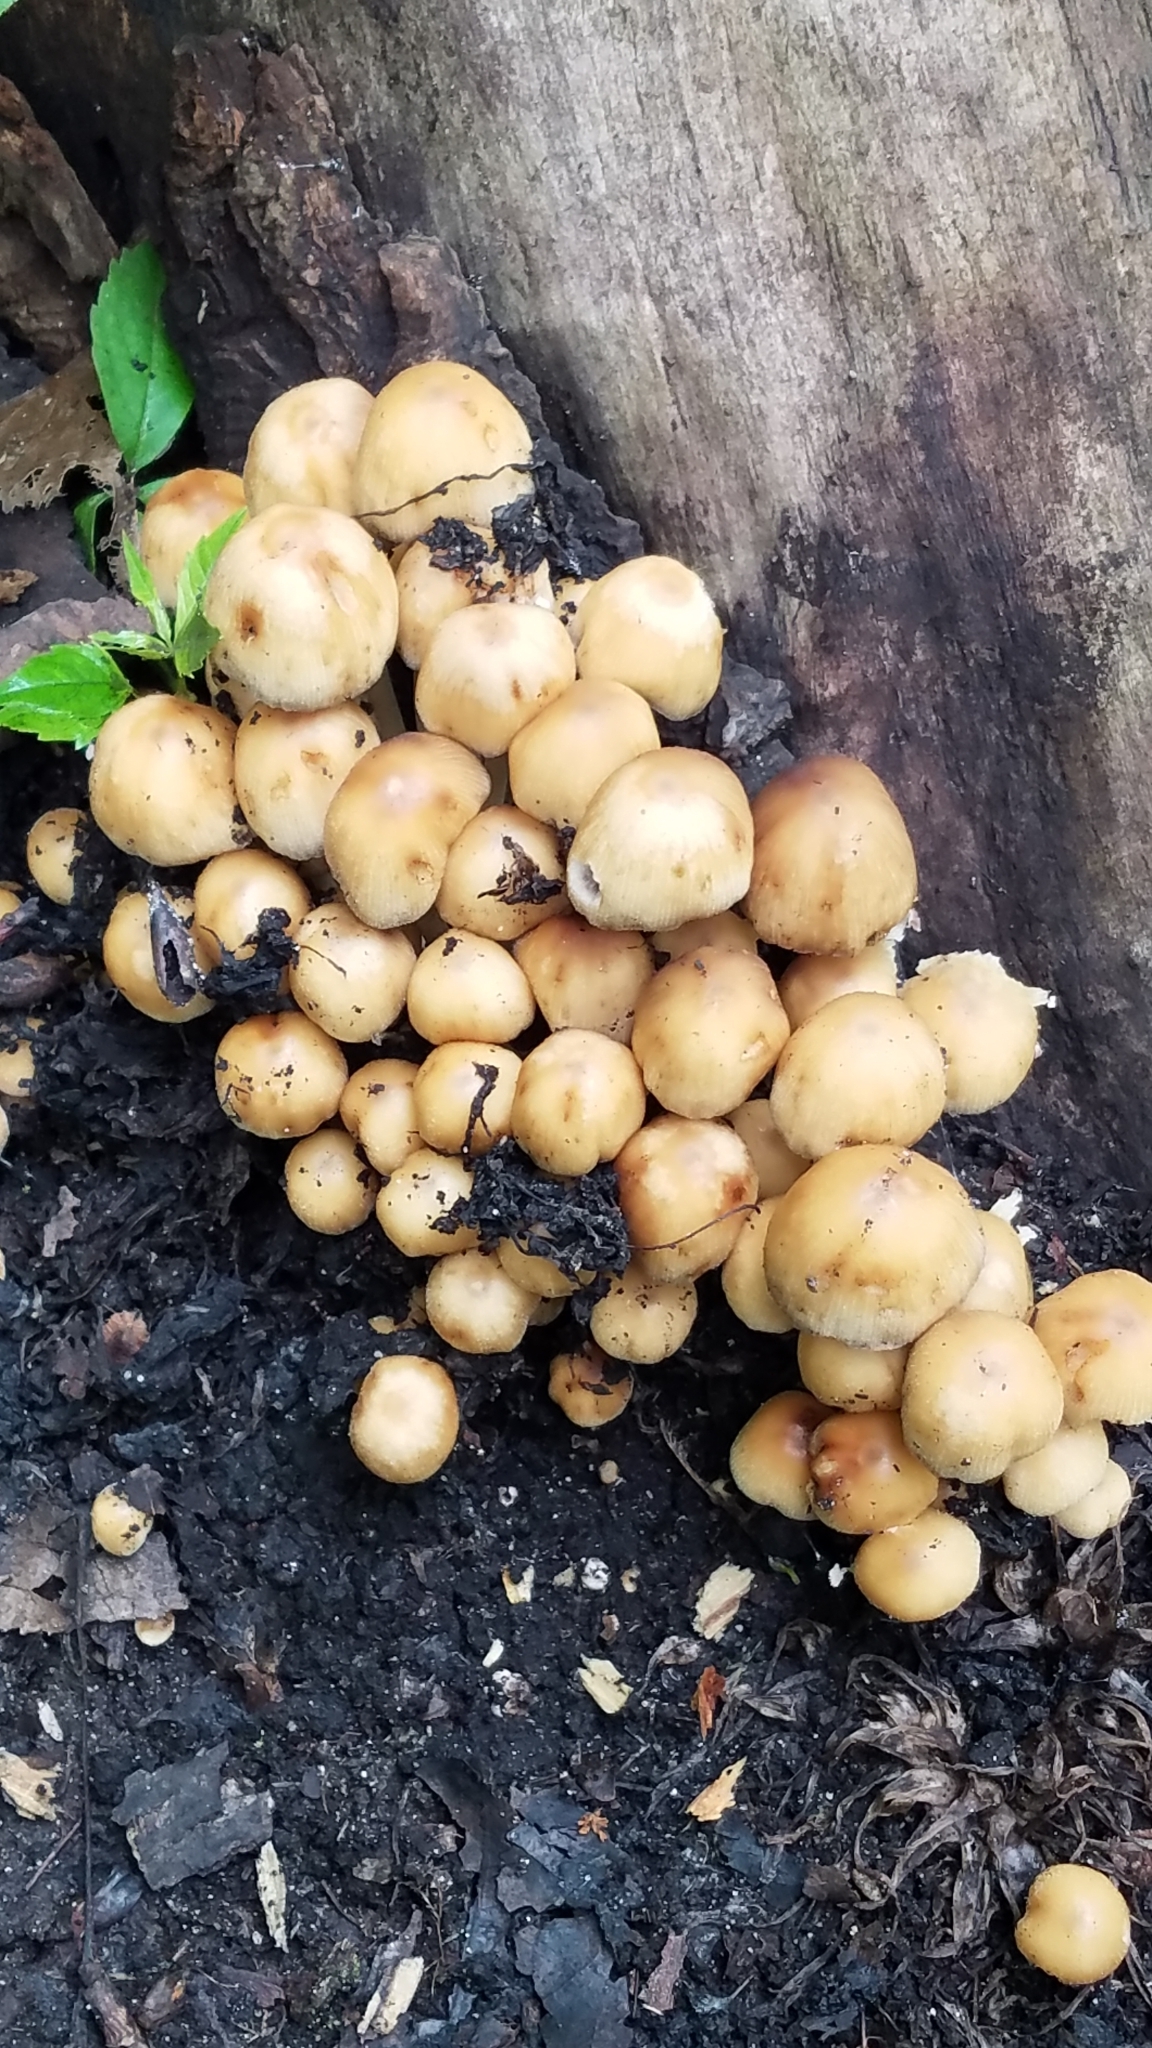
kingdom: Fungi
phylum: Basidiomycota
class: Agaricomycetes
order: Agaricales
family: Psathyrellaceae
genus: Coprinellus
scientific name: Coprinellus micaceus
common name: Glistening ink-cap
